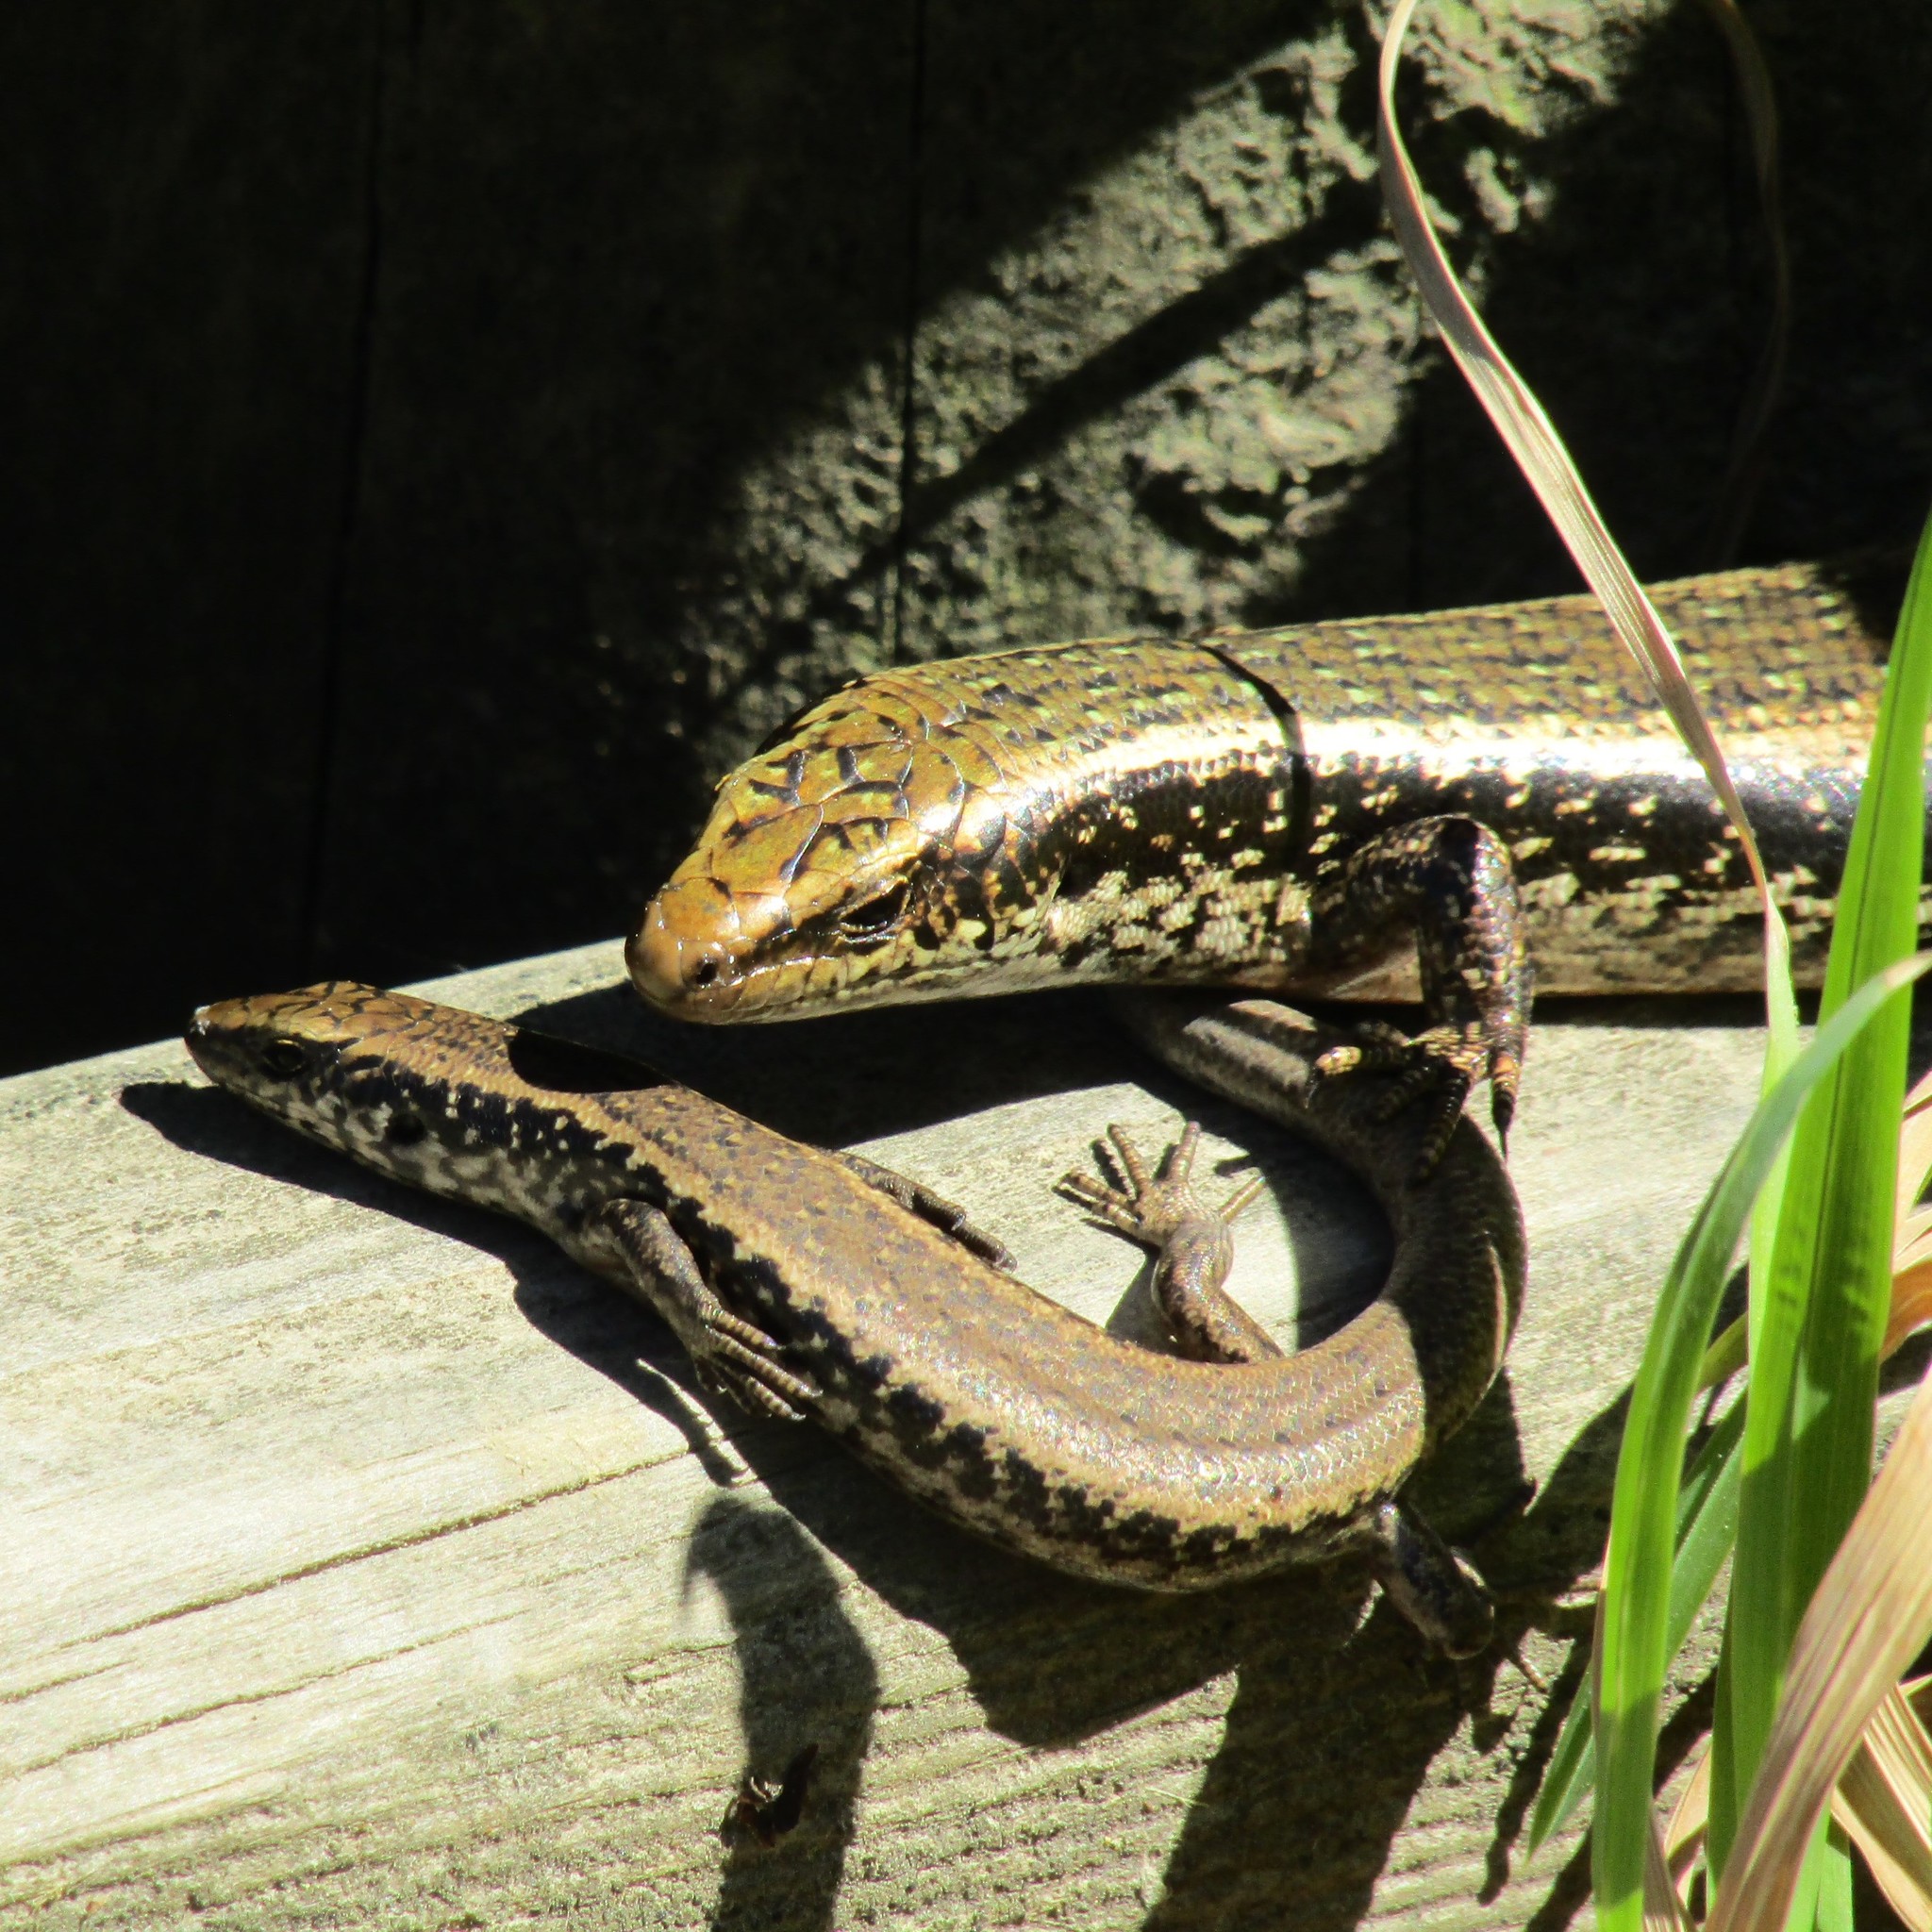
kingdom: Animalia
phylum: Chordata
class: Squamata
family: Scincidae
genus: Oligosoma
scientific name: Oligosoma kokowai
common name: Northern spotted skink
